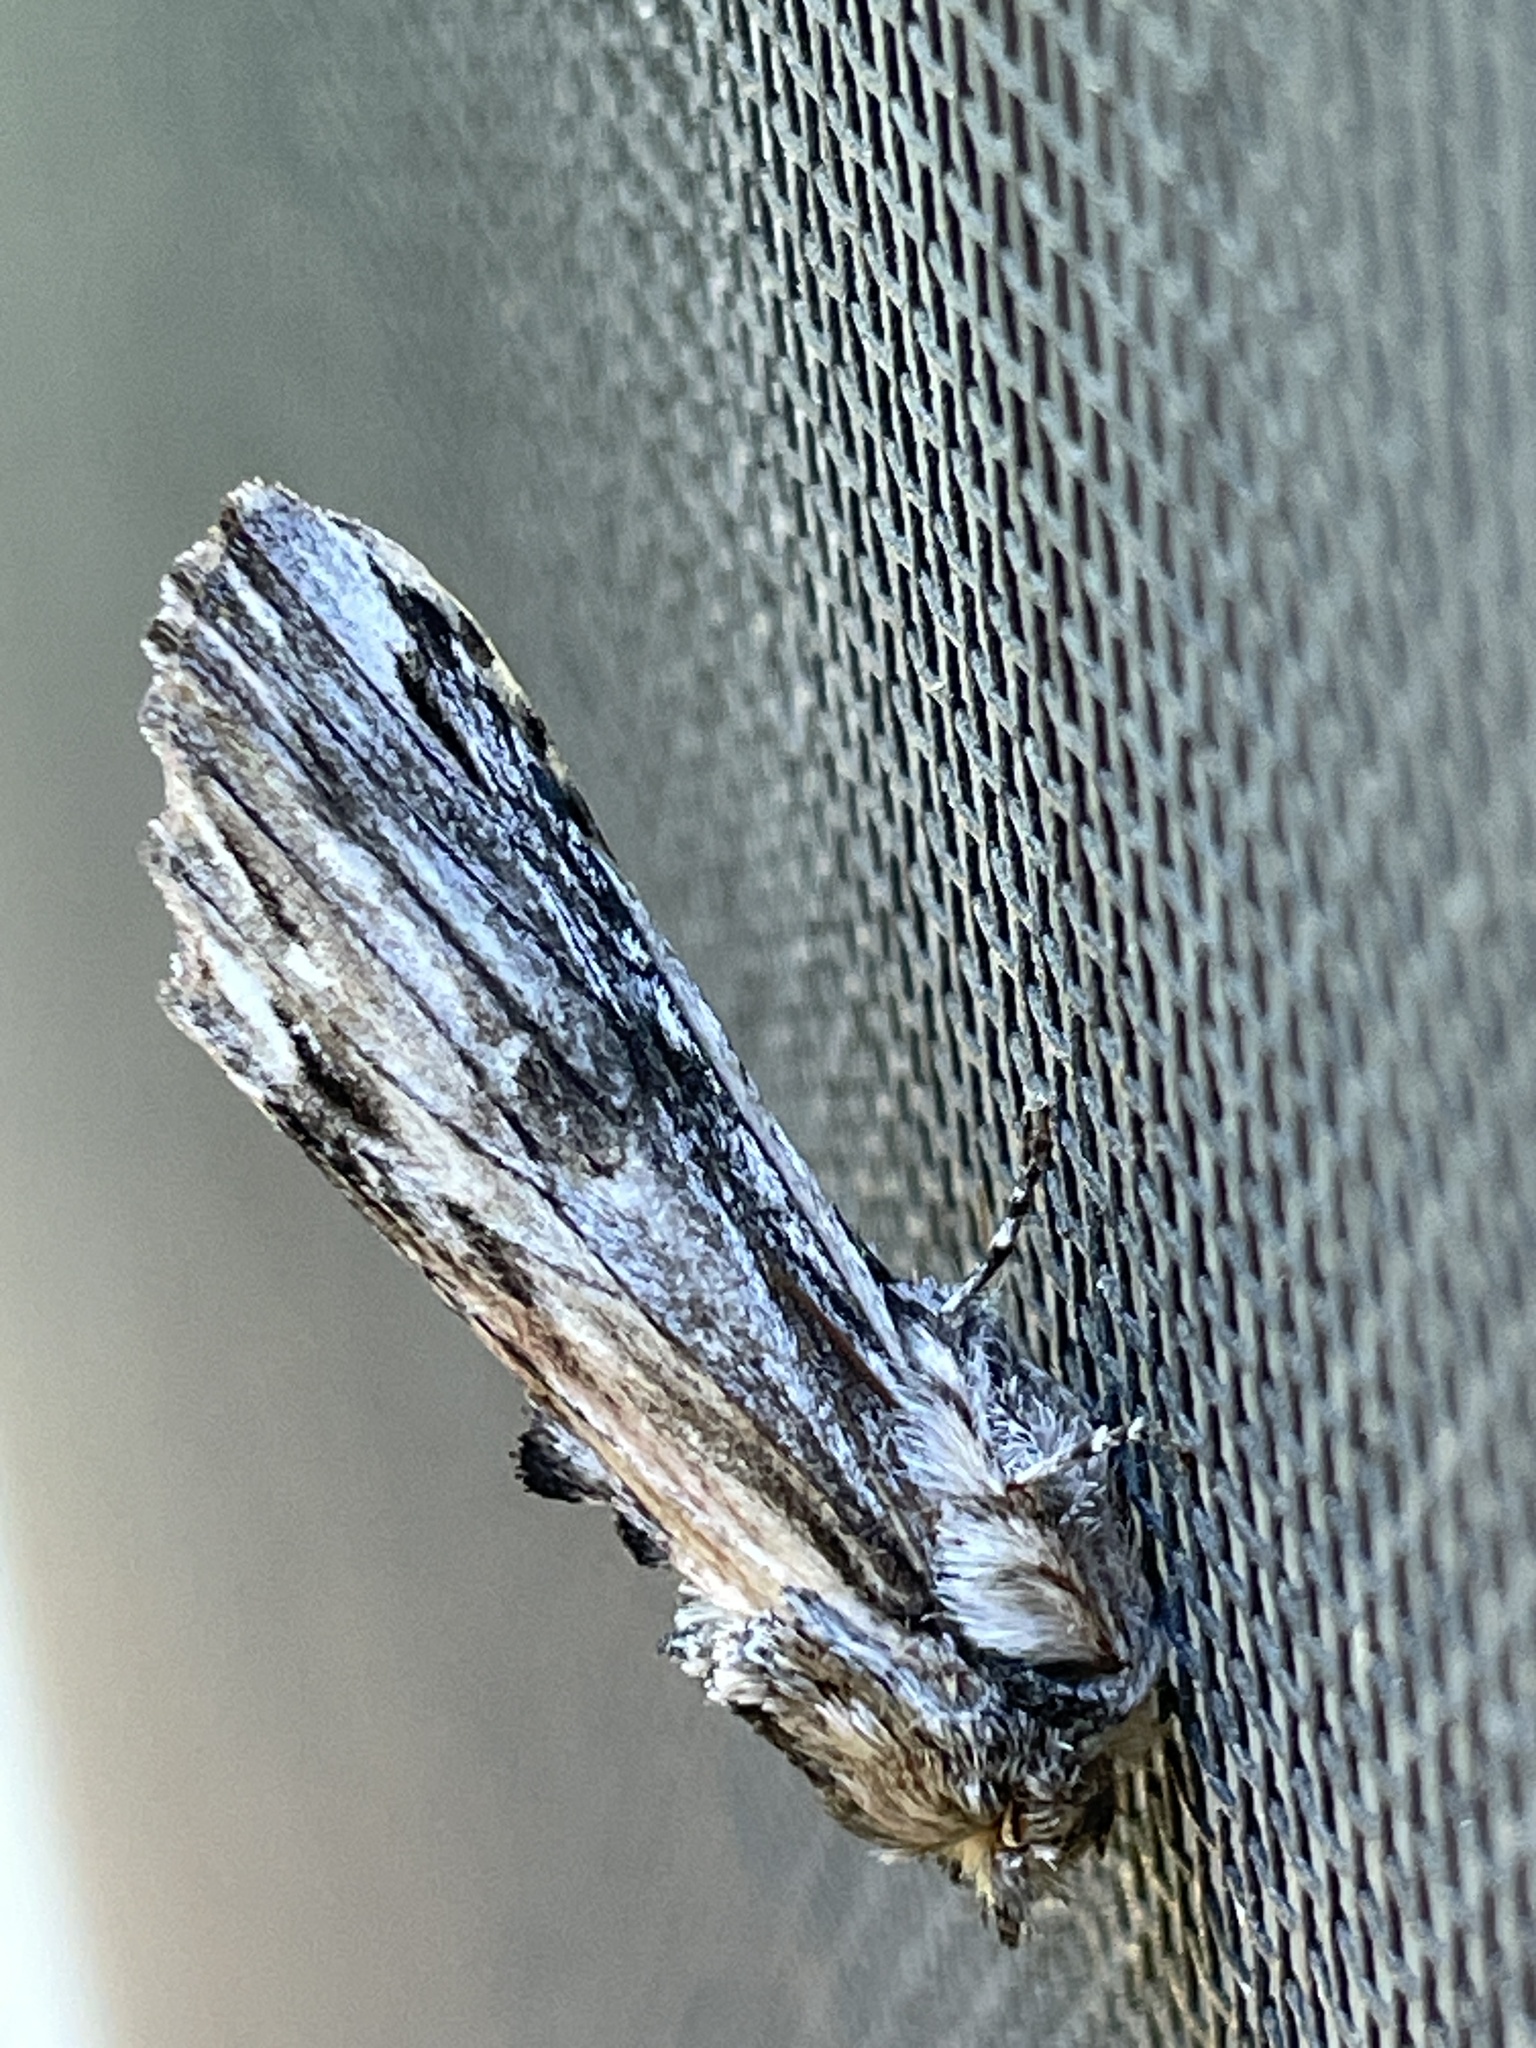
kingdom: Animalia
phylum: Arthropoda
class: Insecta
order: Lepidoptera
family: Notodontidae
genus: Oligocentria
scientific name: Oligocentria Ianassa lignicolor
